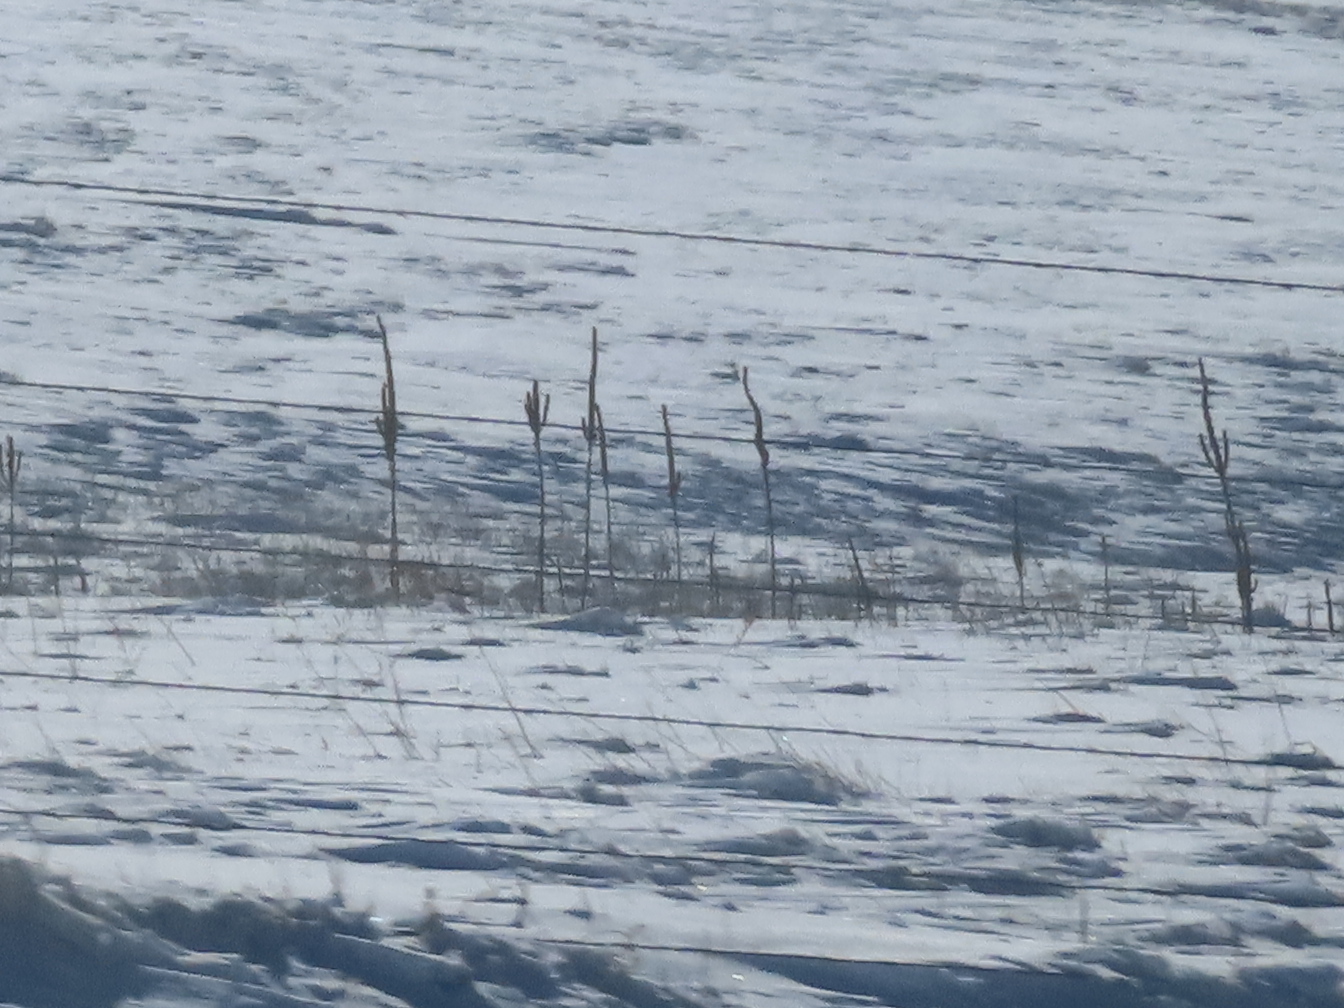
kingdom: Plantae
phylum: Tracheophyta
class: Magnoliopsida
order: Lamiales
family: Scrophulariaceae
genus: Verbascum
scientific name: Verbascum thapsus
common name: Common mullein
